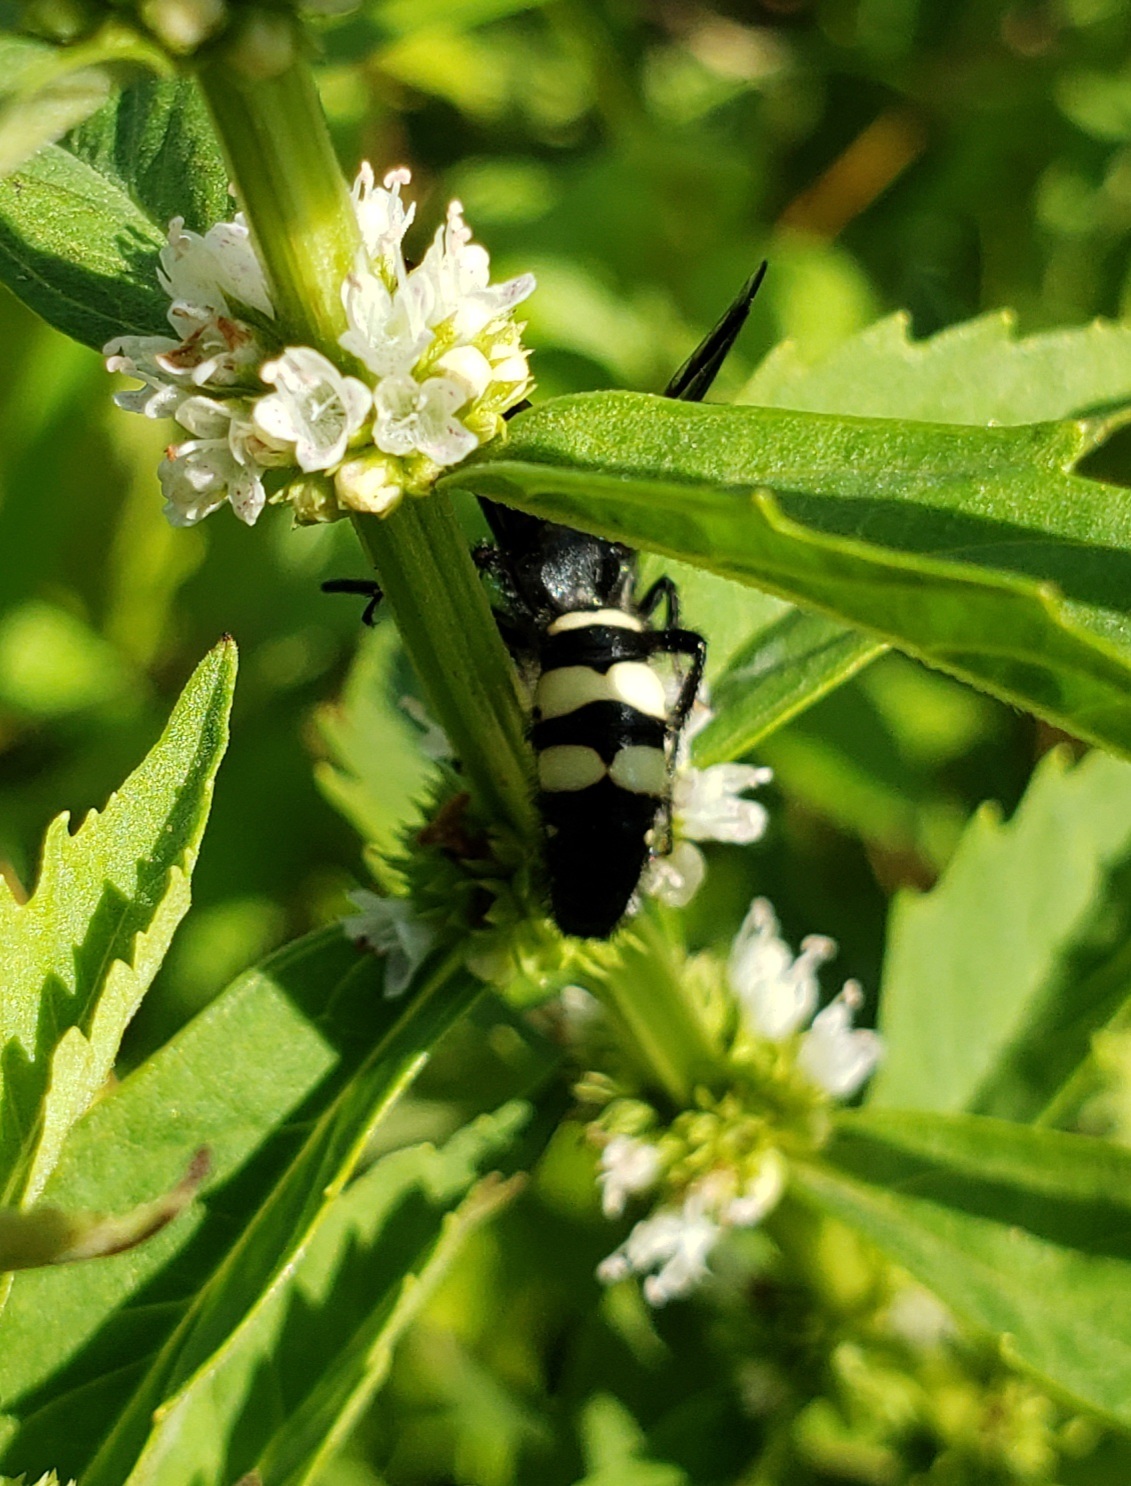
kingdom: Animalia
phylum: Arthropoda
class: Insecta
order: Hymenoptera
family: Scoliidae
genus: Scolia
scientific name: Scolia bicincta
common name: Double-banded scoliid wasp
